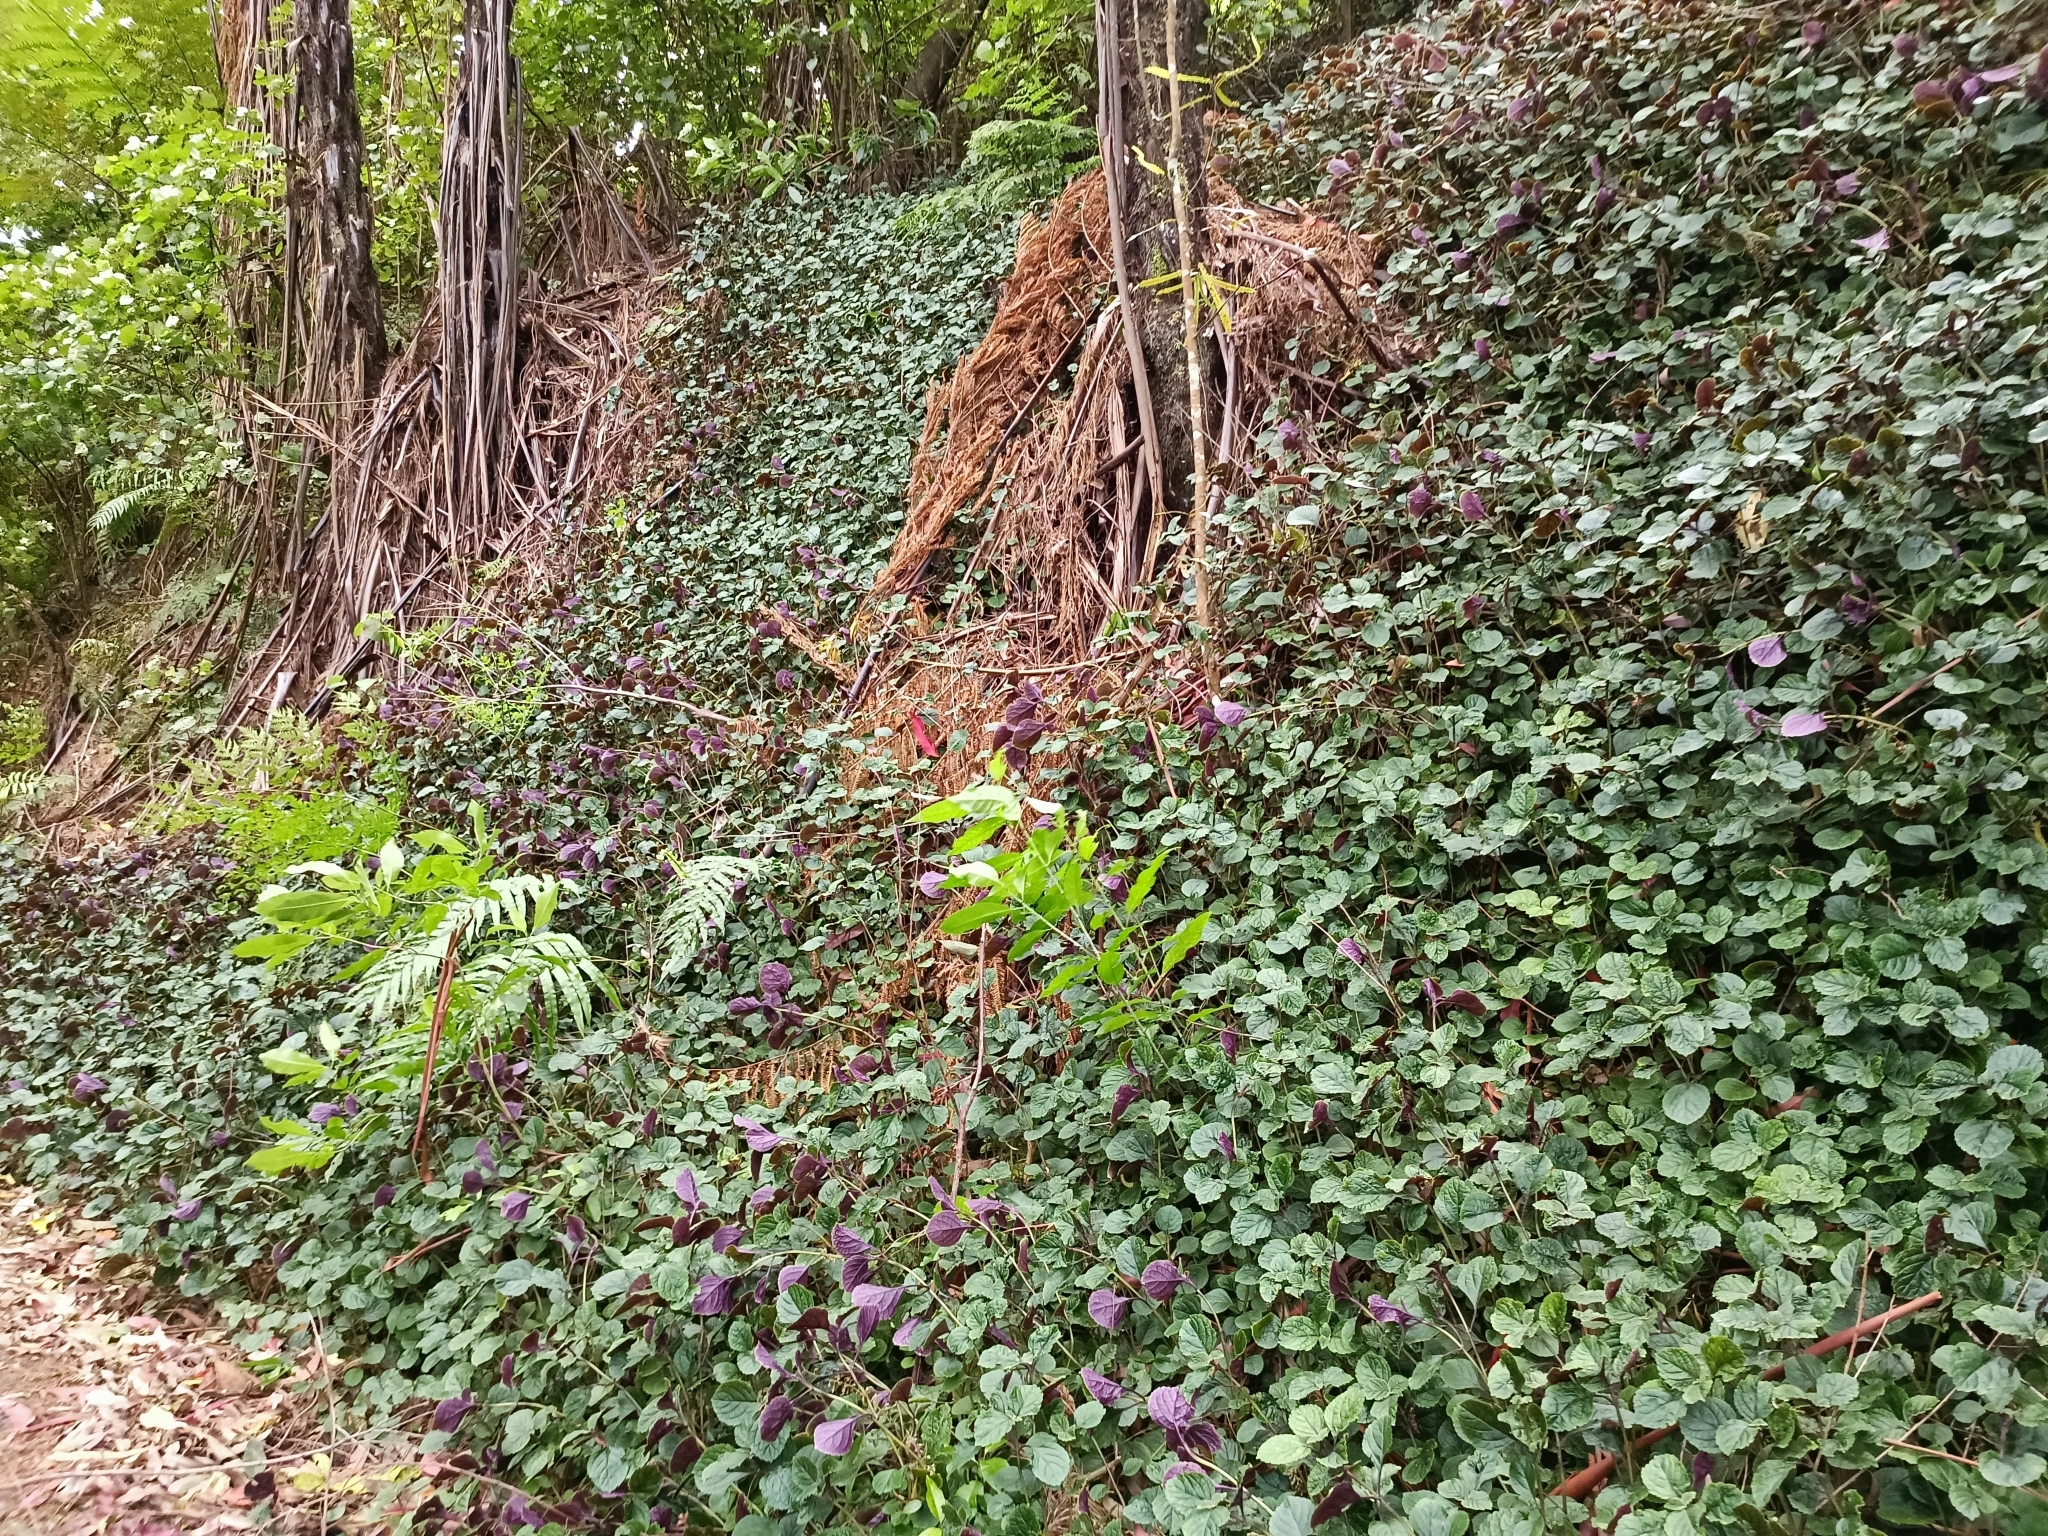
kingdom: Plantae
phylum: Tracheophyta
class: Magnoliopsida
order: Lamiales
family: Lamiaceae
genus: Plectranthus
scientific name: Plectranthus ciliatus
